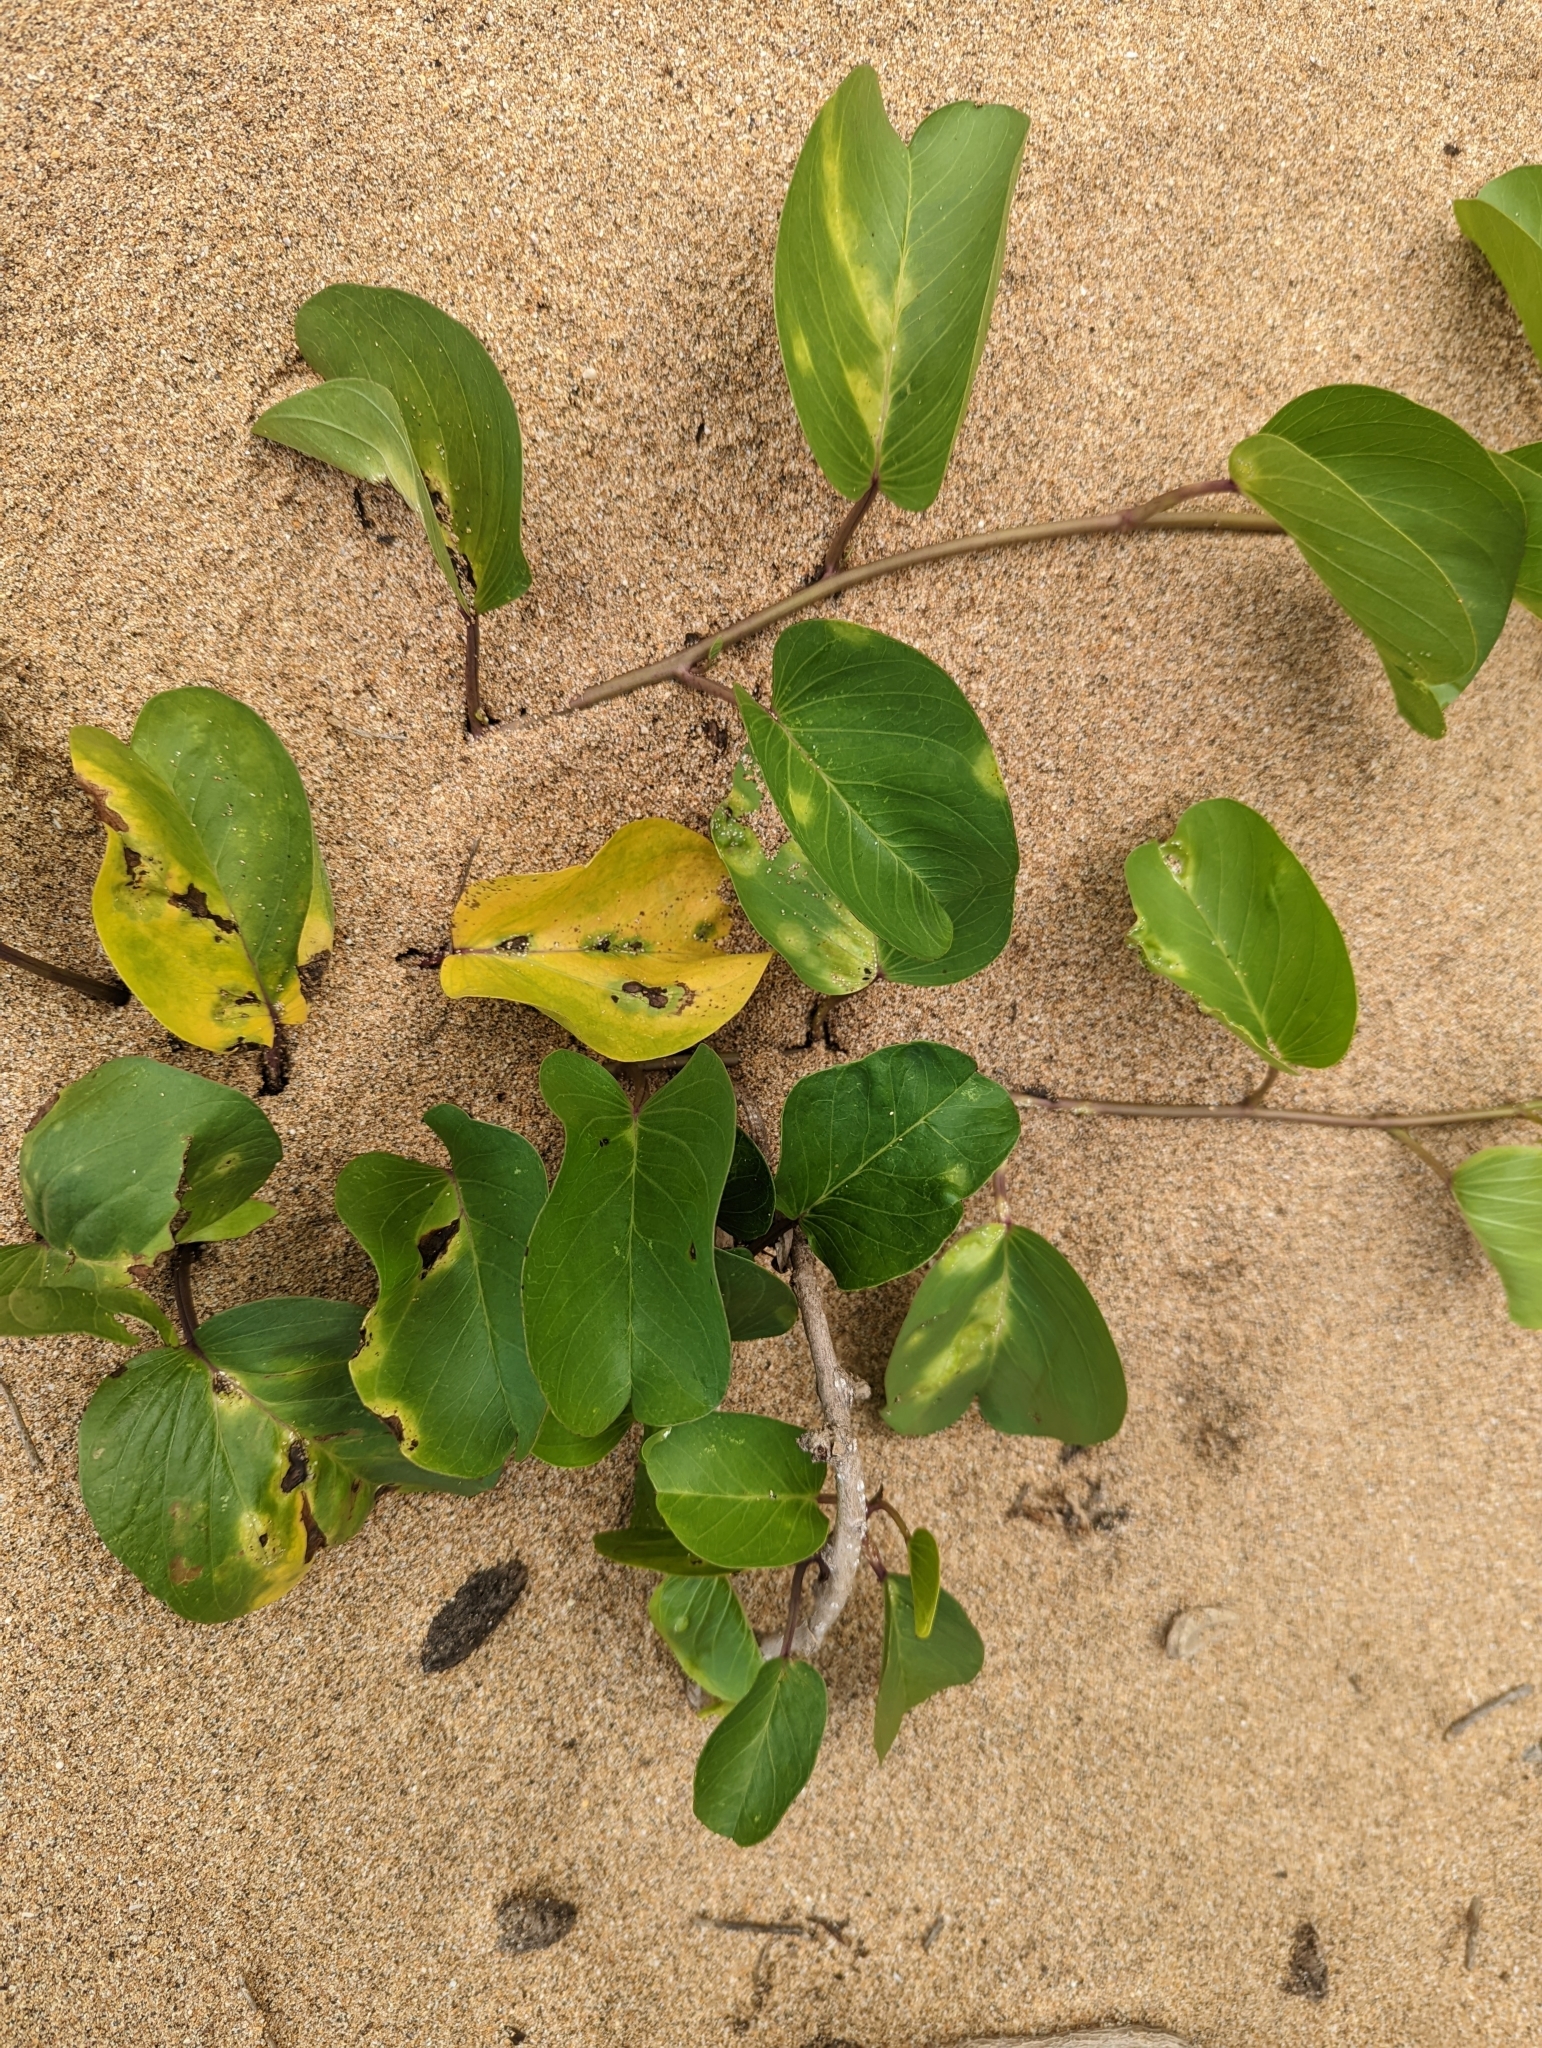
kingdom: Plantae
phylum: Tracheophyta
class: Magnoliopsida
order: Solanales
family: Convolvulaceae
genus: Ipomoea
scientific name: Ipomoea pes-caprae
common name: Beach morning glory
